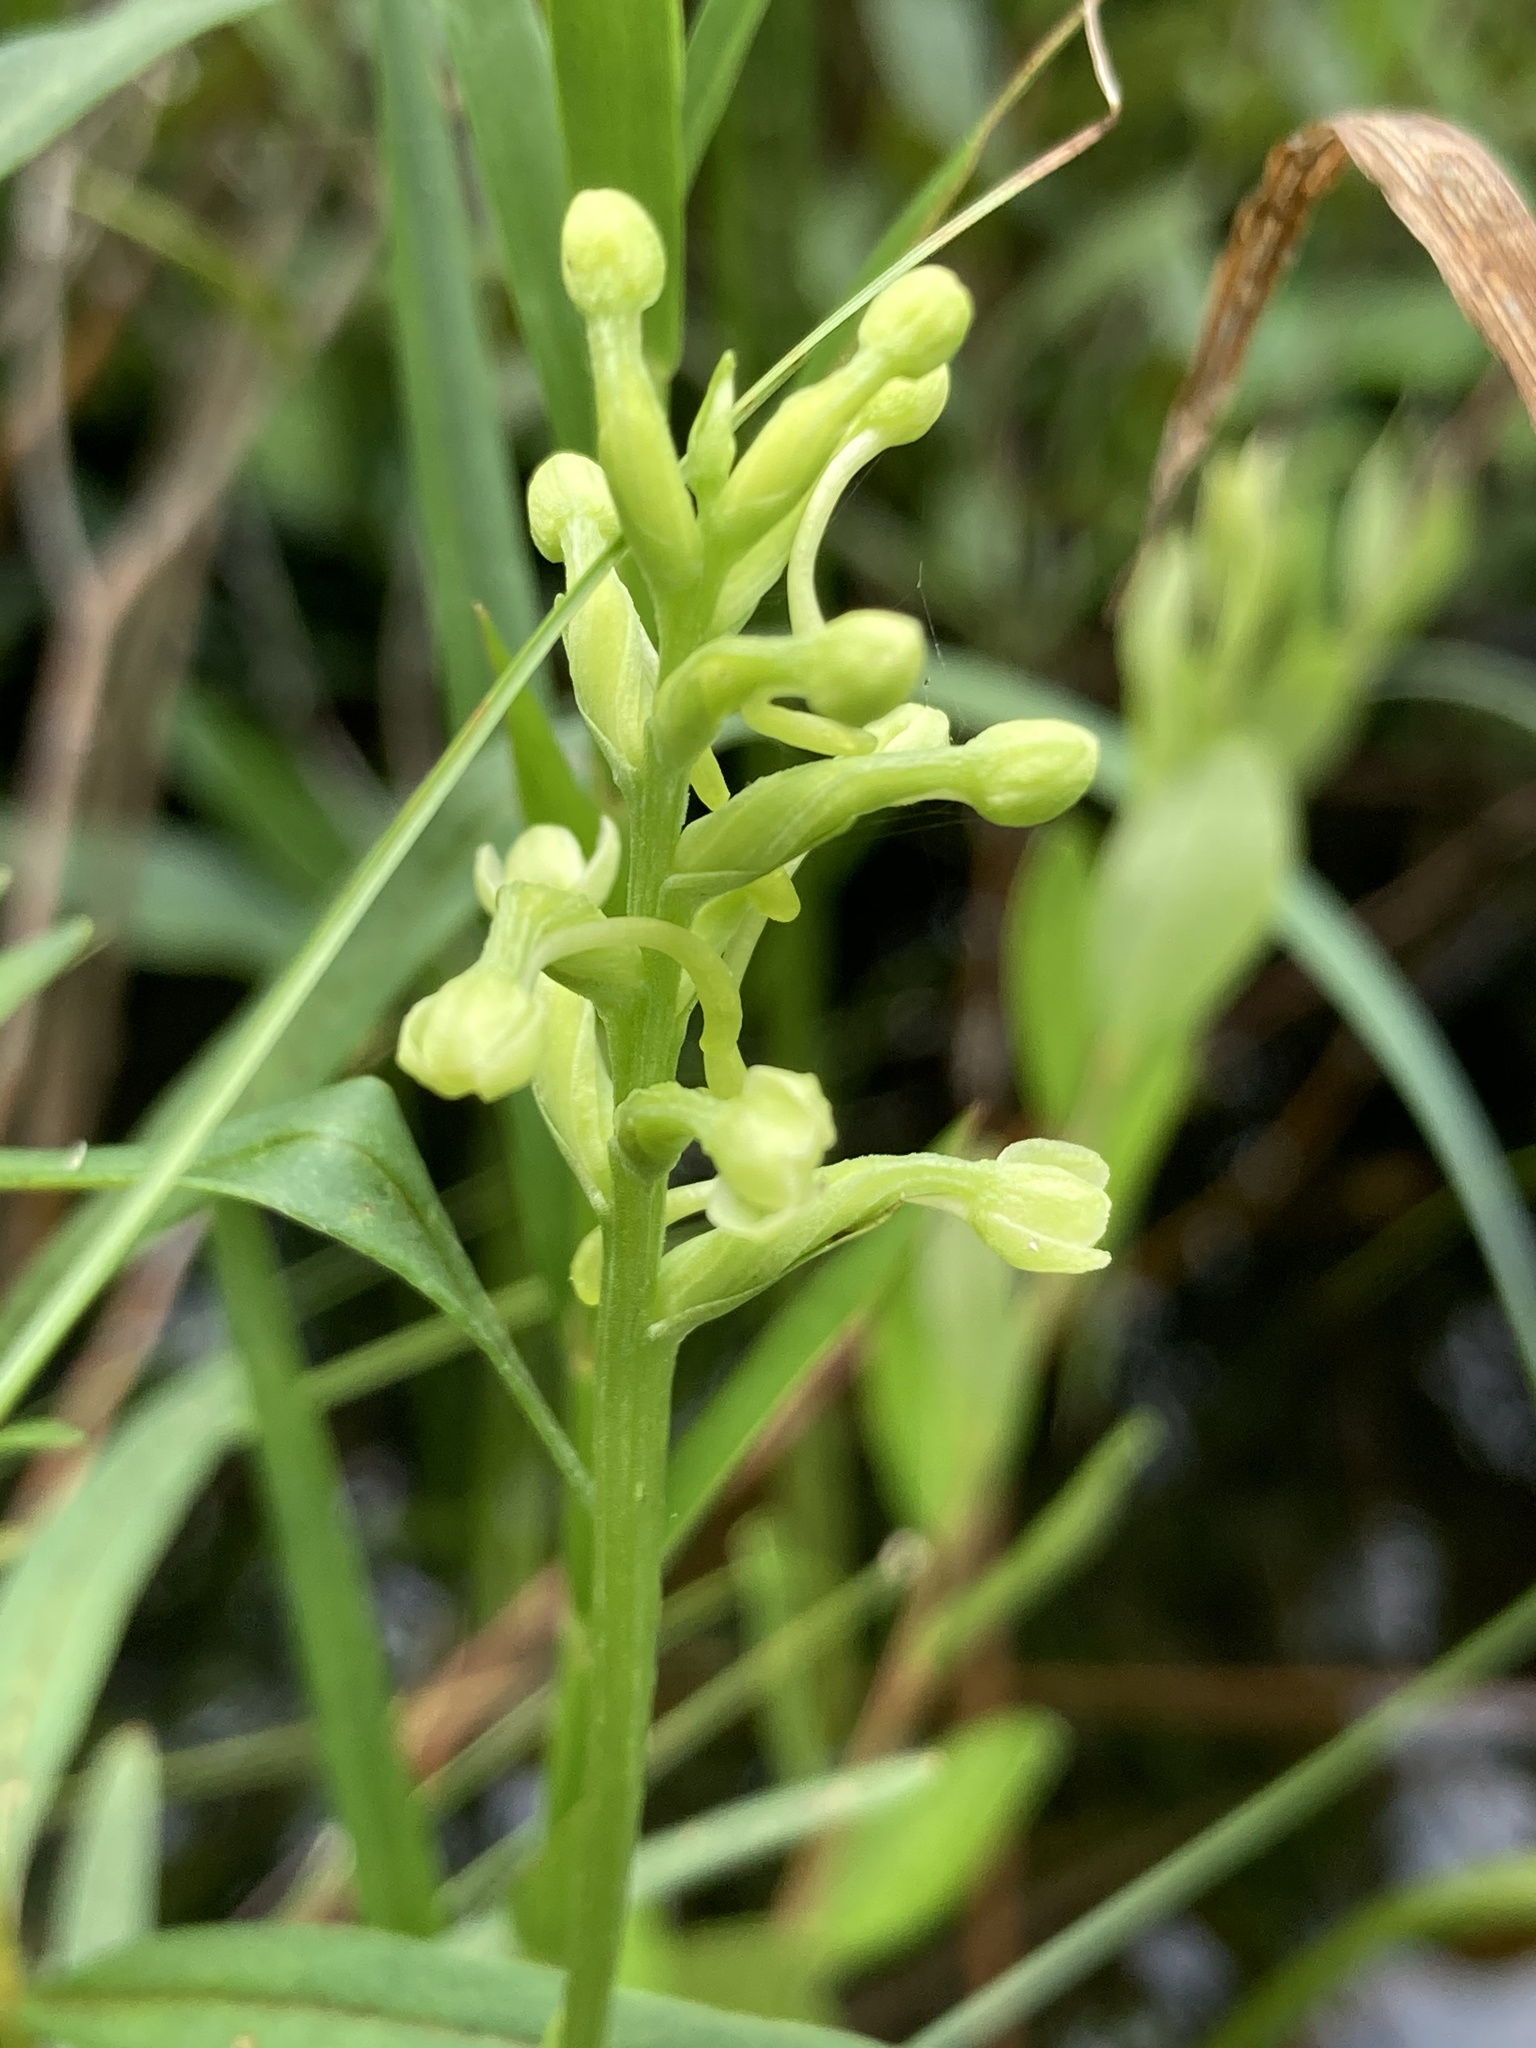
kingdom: Plantae
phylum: Tracheophyta
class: Liliopsida
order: Asparagales
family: Orchidaceae
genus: Platanthera
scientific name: Platanthera clavellata
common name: Club-spur orchid
